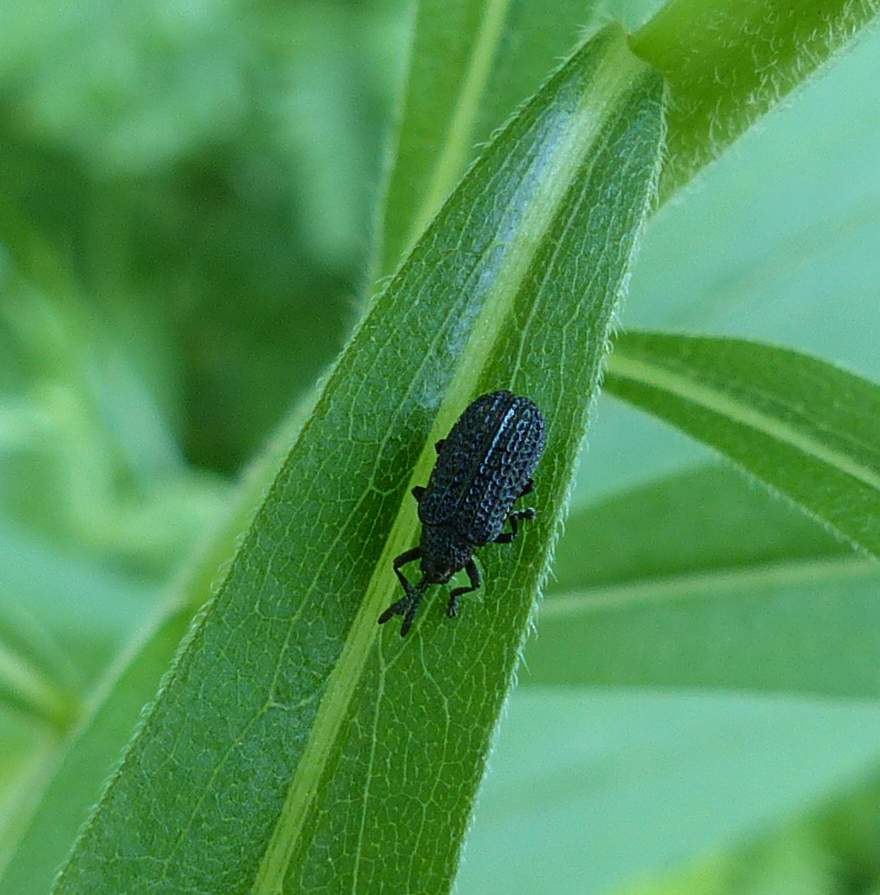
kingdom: Animalia
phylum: Arthropoda
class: Insecta
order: Coleoptera
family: Chrysomelidae
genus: Microrhopala
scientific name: Microrhopala excavata
